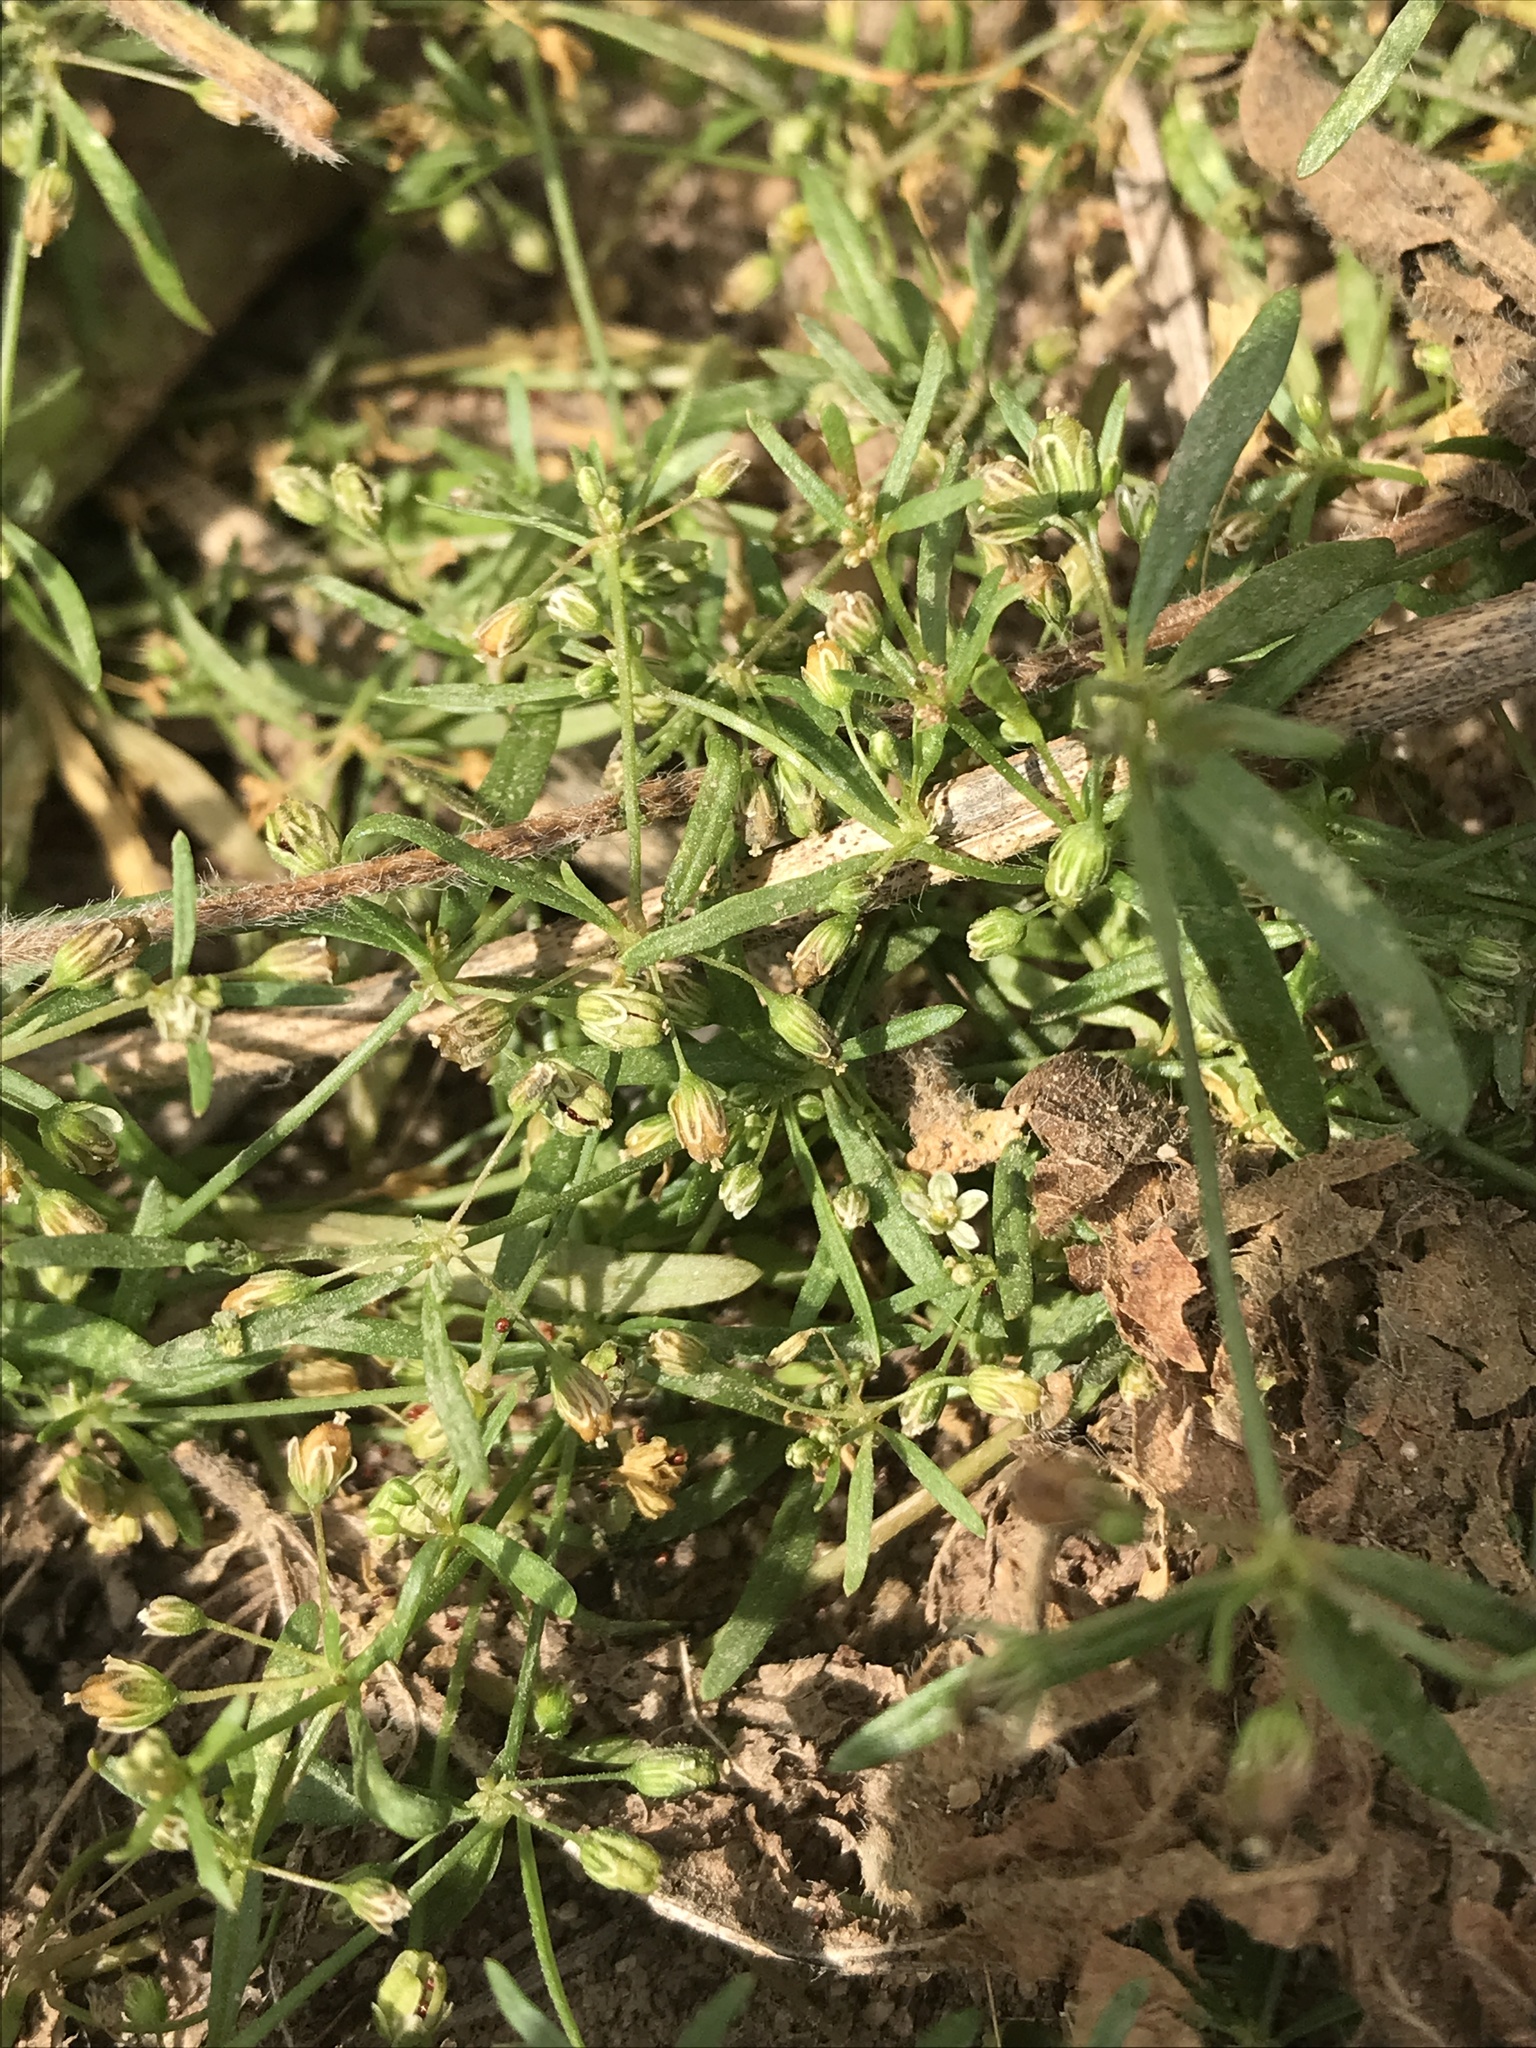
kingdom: Plantae
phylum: Tracheophyta
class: Magnoliopsida
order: Caryophyllales
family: Molluginaceae
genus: Mollugo
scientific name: Mollugo verticillata
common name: Green carpetweed
